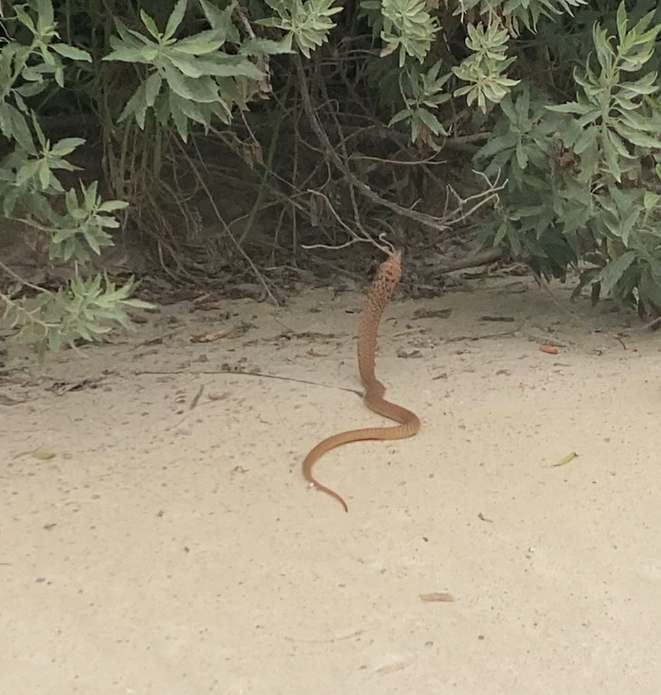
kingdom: Animalia
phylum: Chordata
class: Squamata
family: Elapidae
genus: Naja
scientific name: Naja nivea
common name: Cape cobra
